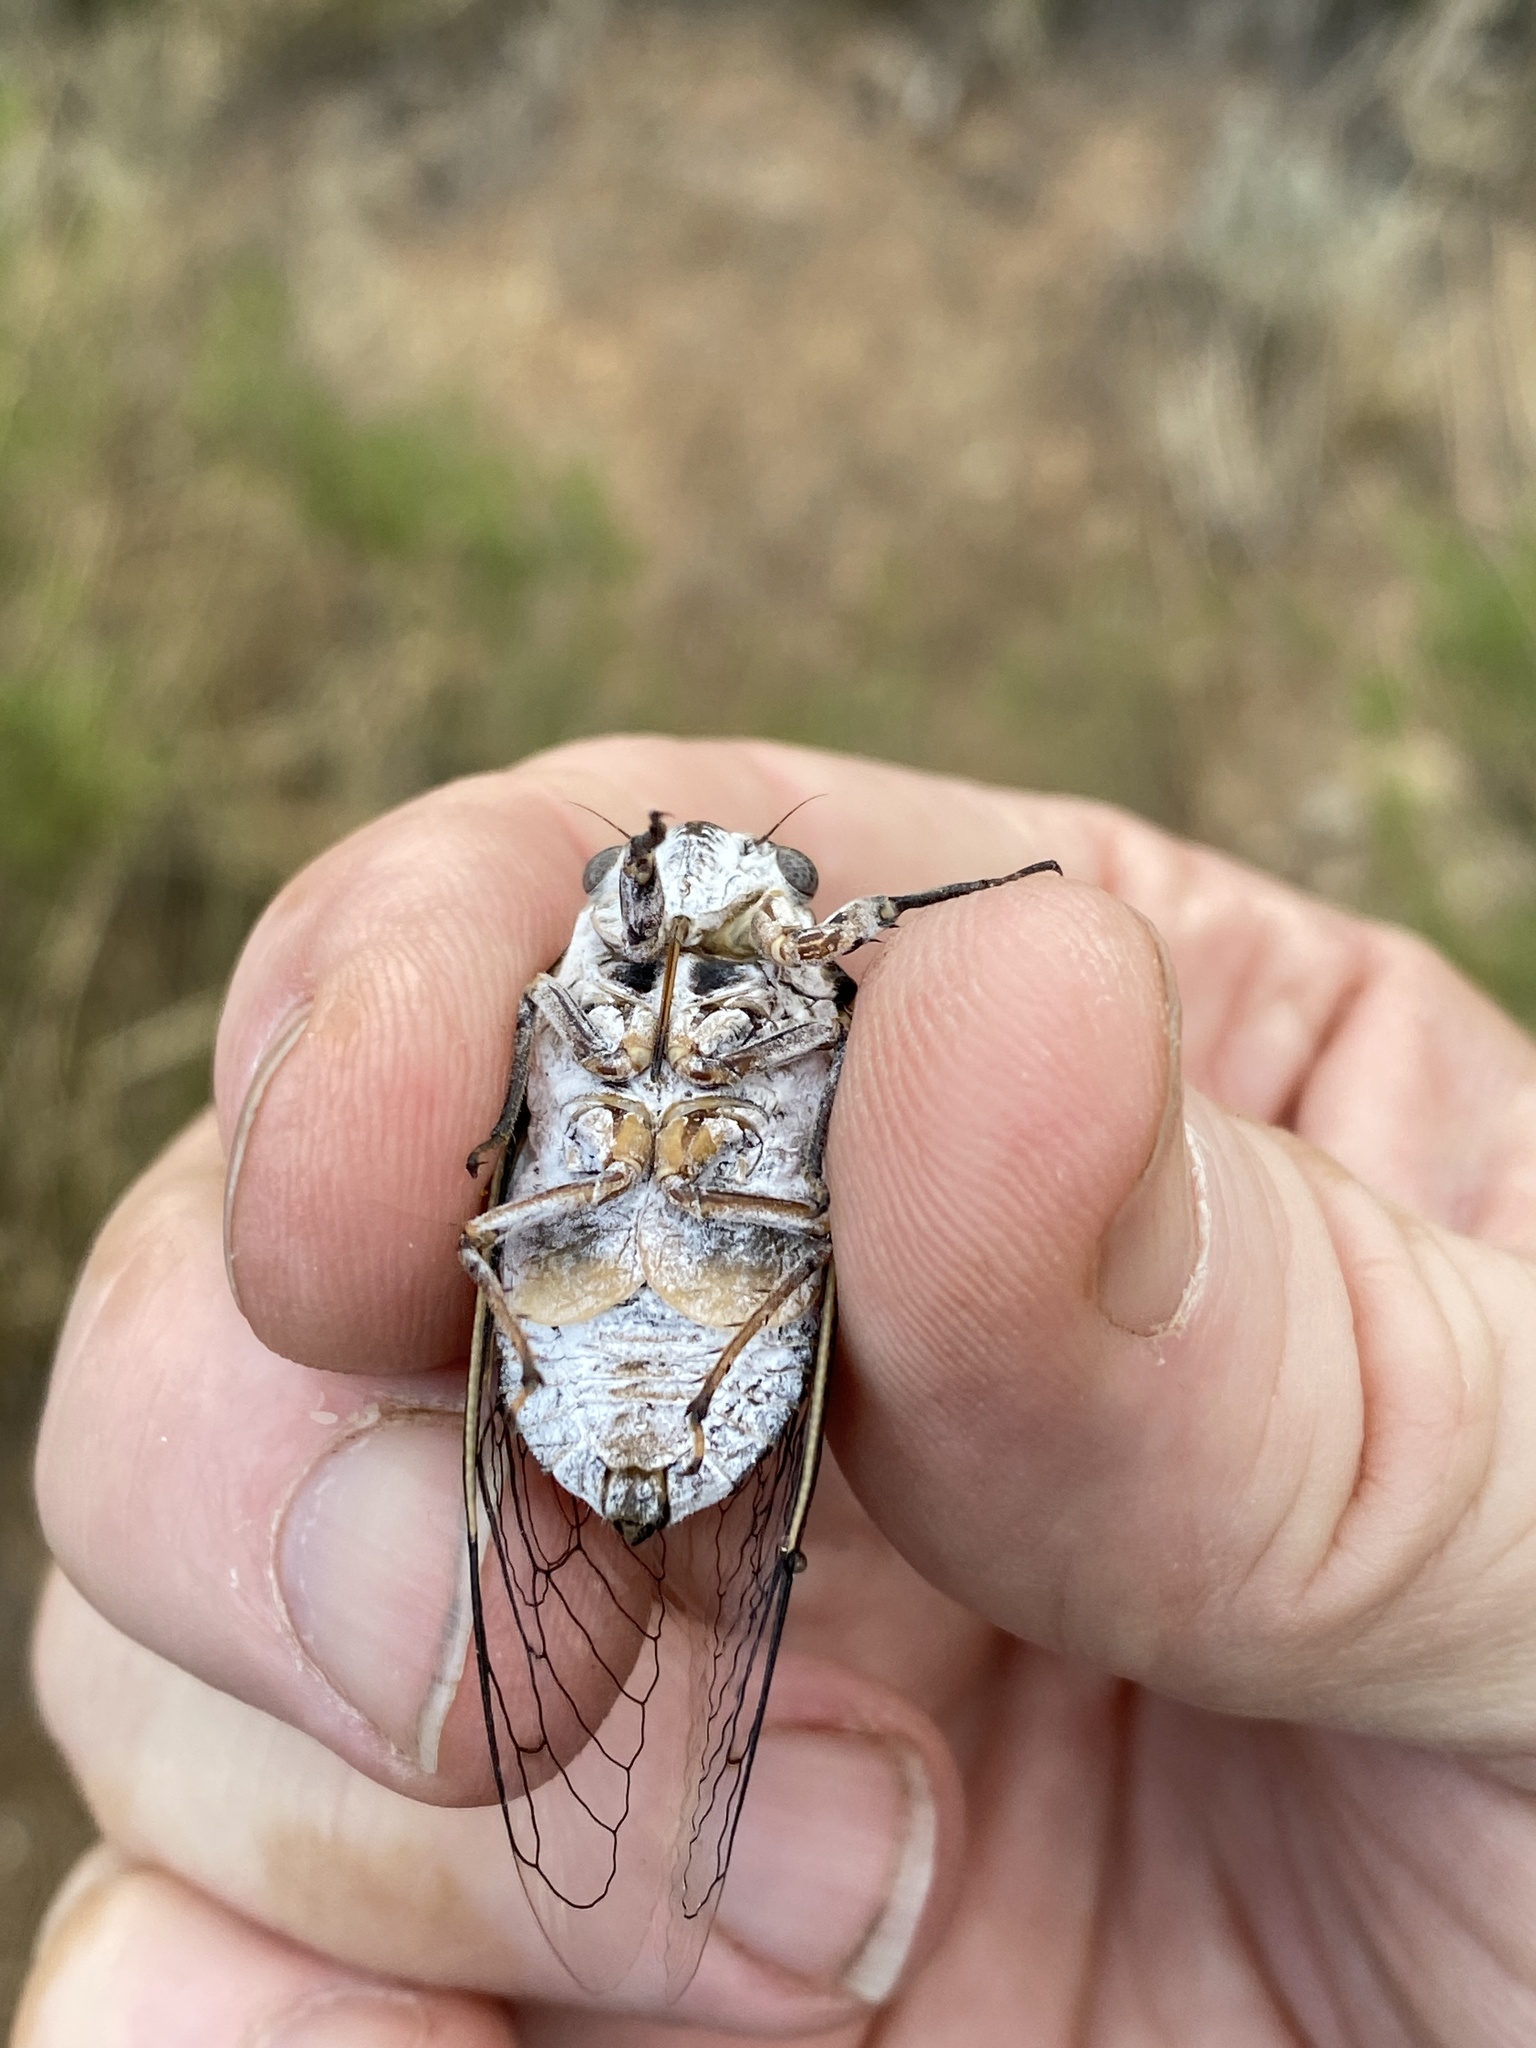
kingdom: Animalia
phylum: Arthropoda
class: Insecta
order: Hemiptera
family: Cicadidae
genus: Cacama
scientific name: Cacama valvata
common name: Cactus dodger
